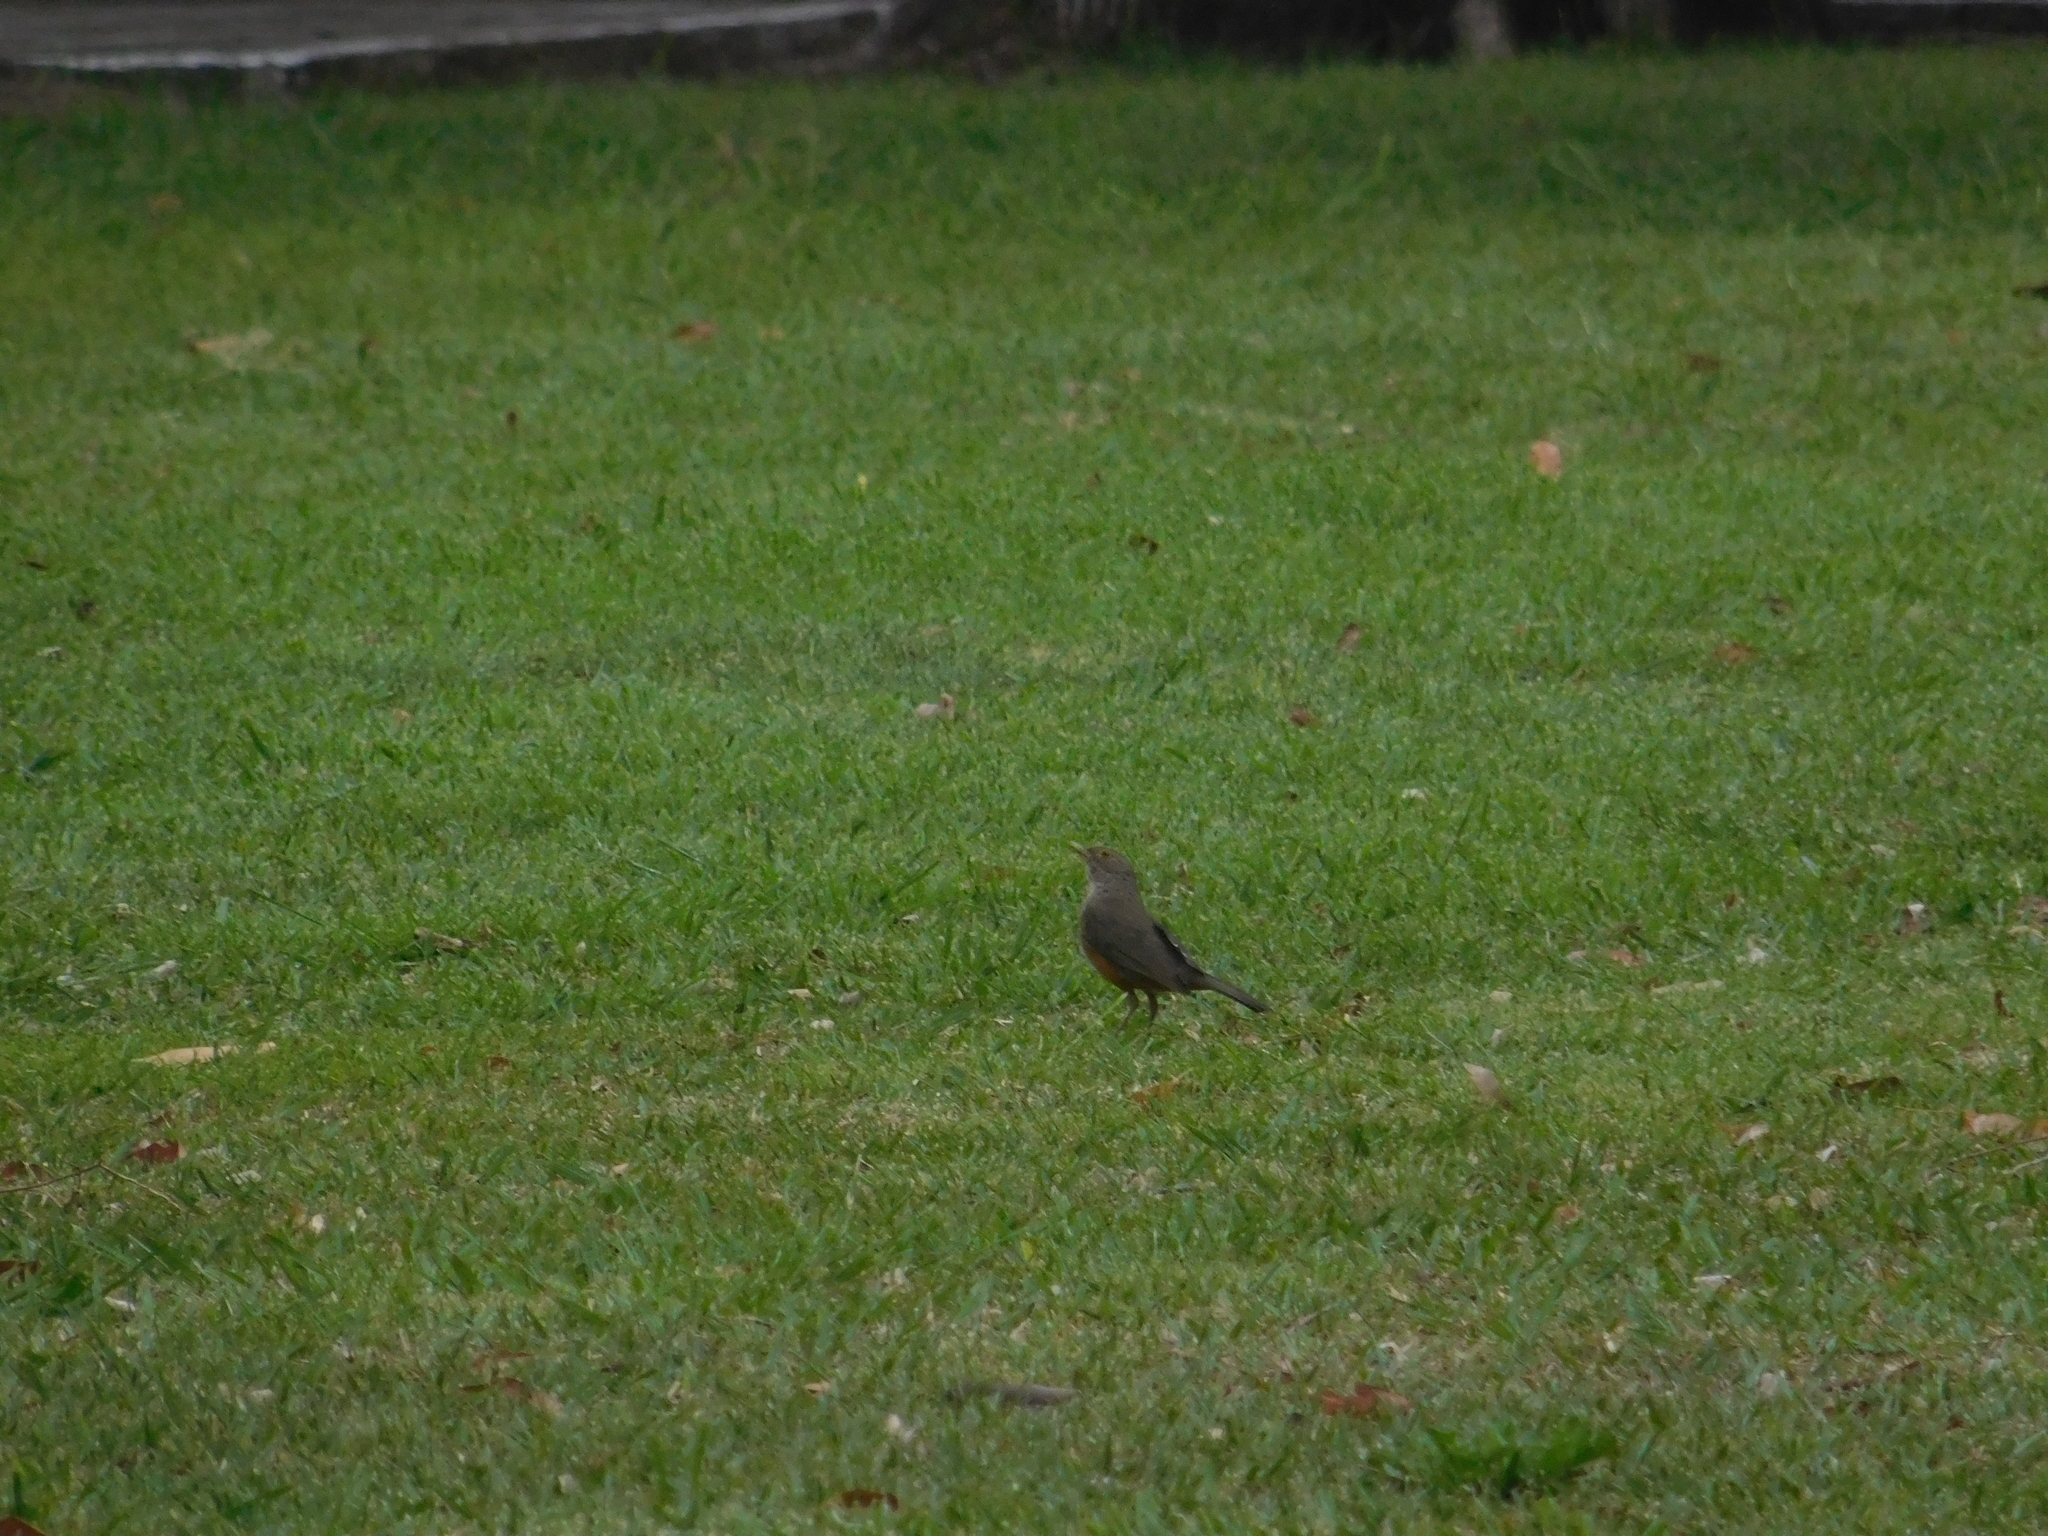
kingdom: Animalia
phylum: Chordata
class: Aves
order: Passeriformes
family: Turdidae
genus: Turdus
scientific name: Turdus rufiventris
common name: Rufous-bellied thrush
